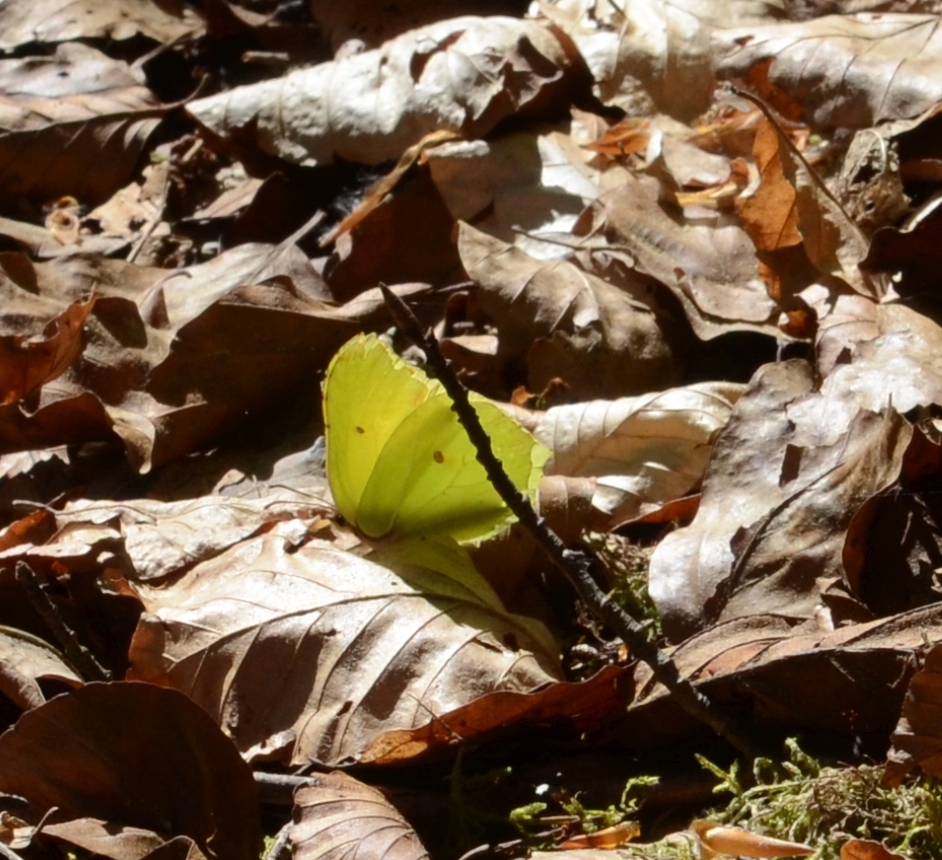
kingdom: Animalia
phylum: Arthropoda
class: Insecta
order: Lepidoptera
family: Pieridae
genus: Gonepteryx
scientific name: Gonepteryx rhamni
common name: Brimstone
